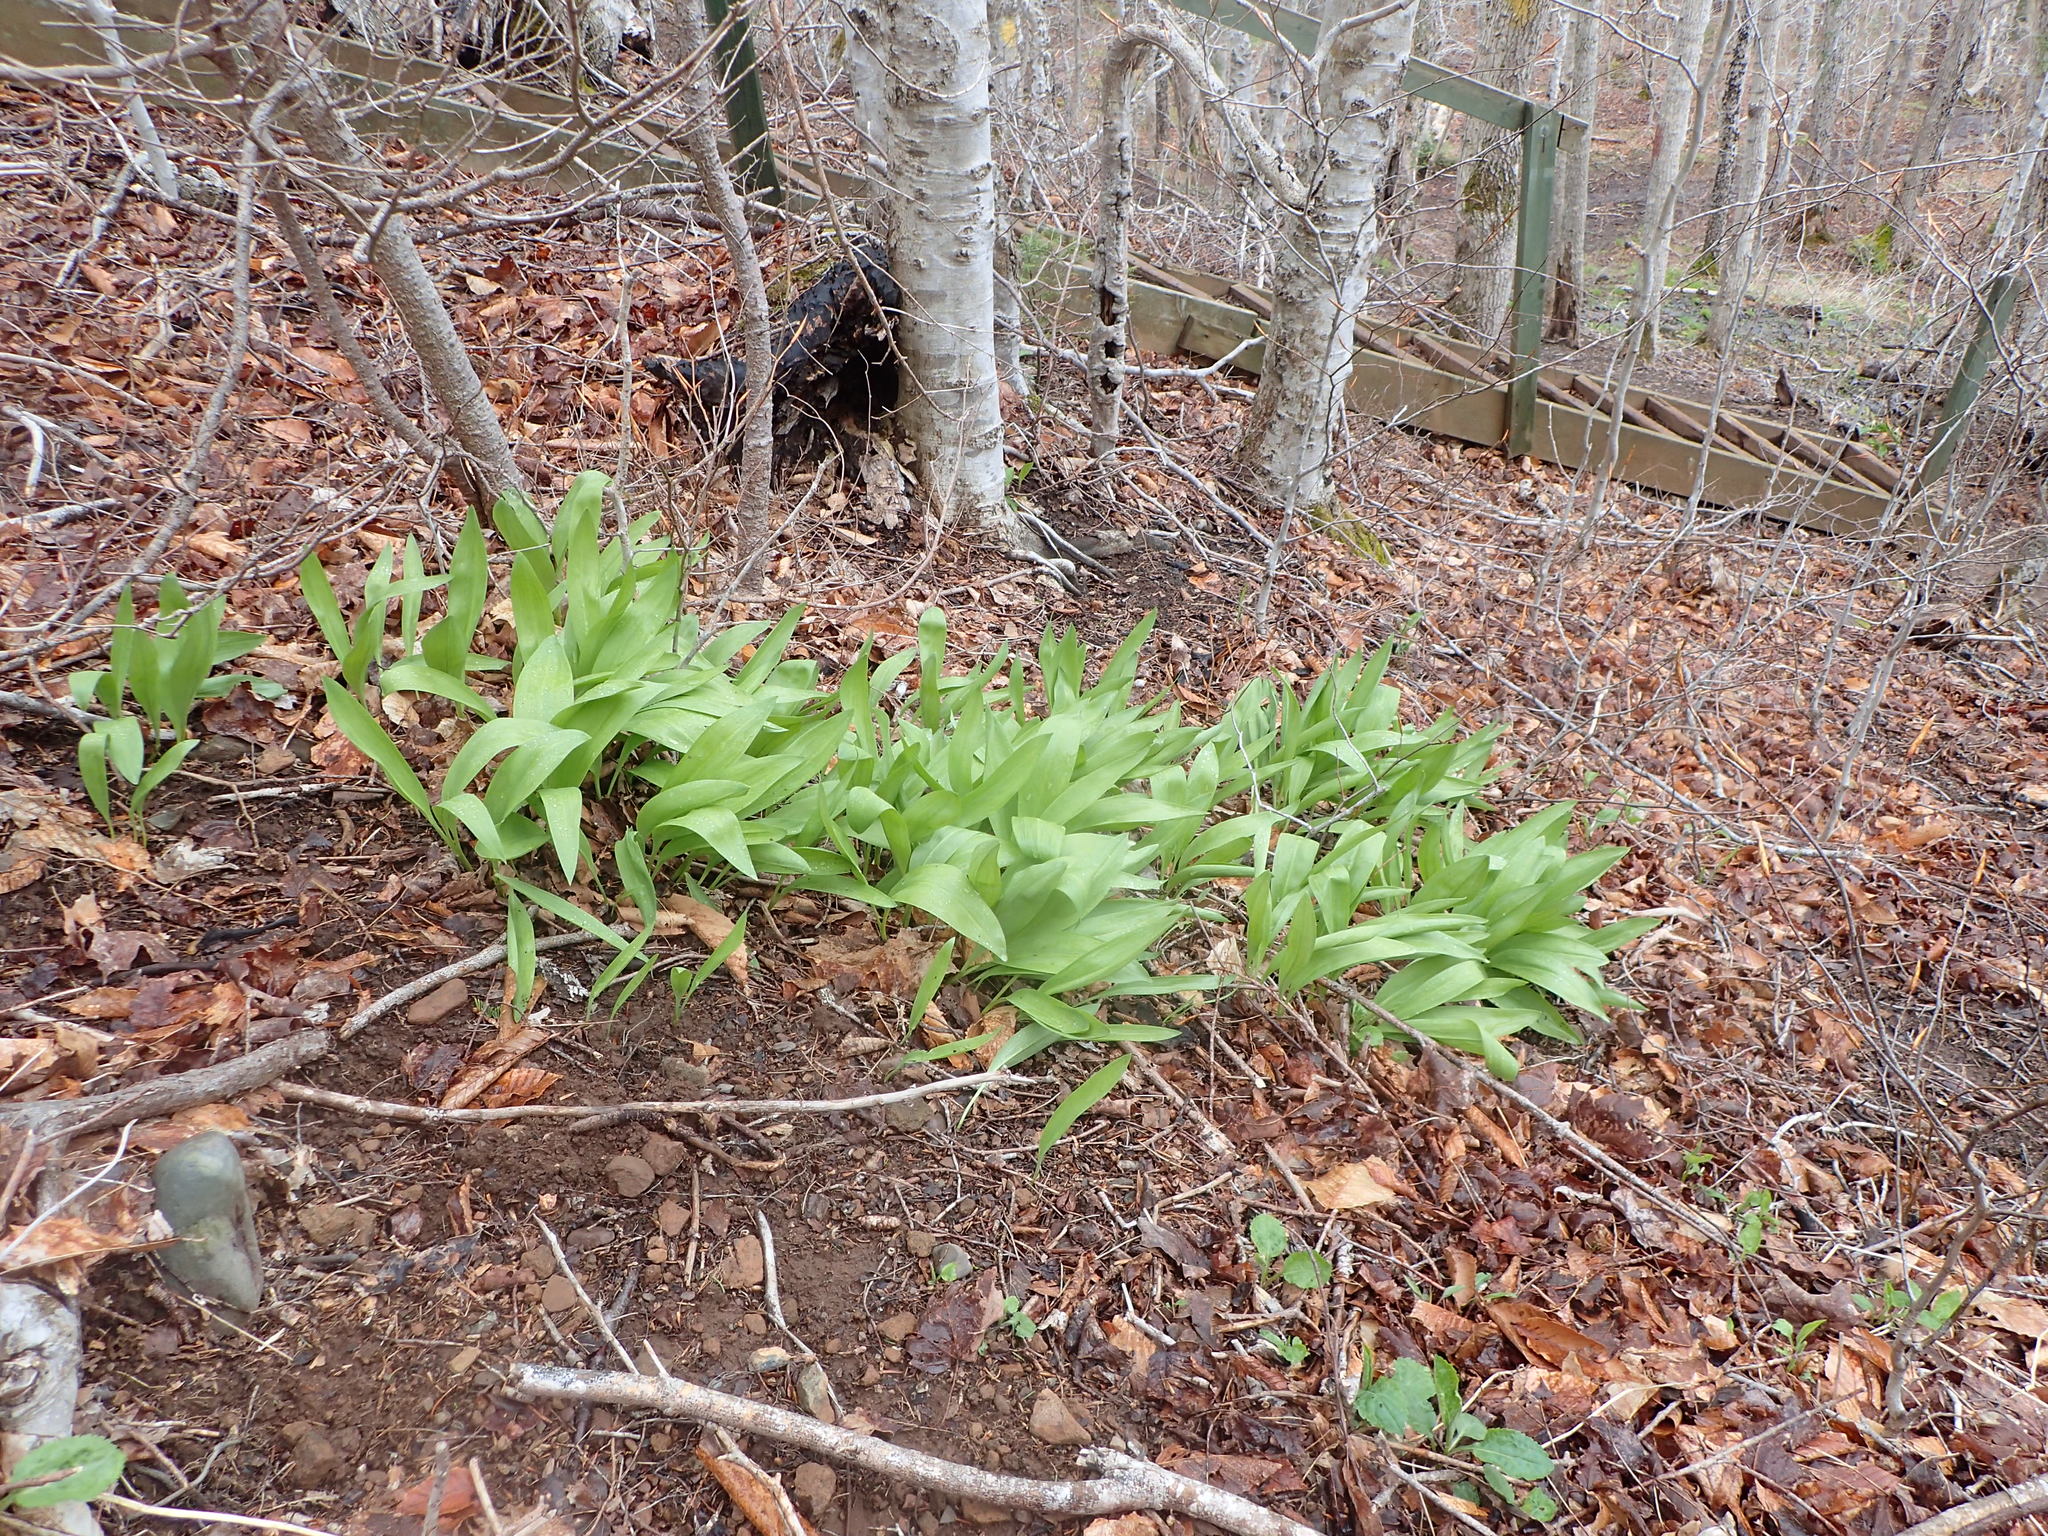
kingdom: Plantae
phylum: Tracheophyta
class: Liliopsida
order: Asparagales
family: Amaryllidaceae
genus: Allium
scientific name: Allium tricoccum
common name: Ramp
